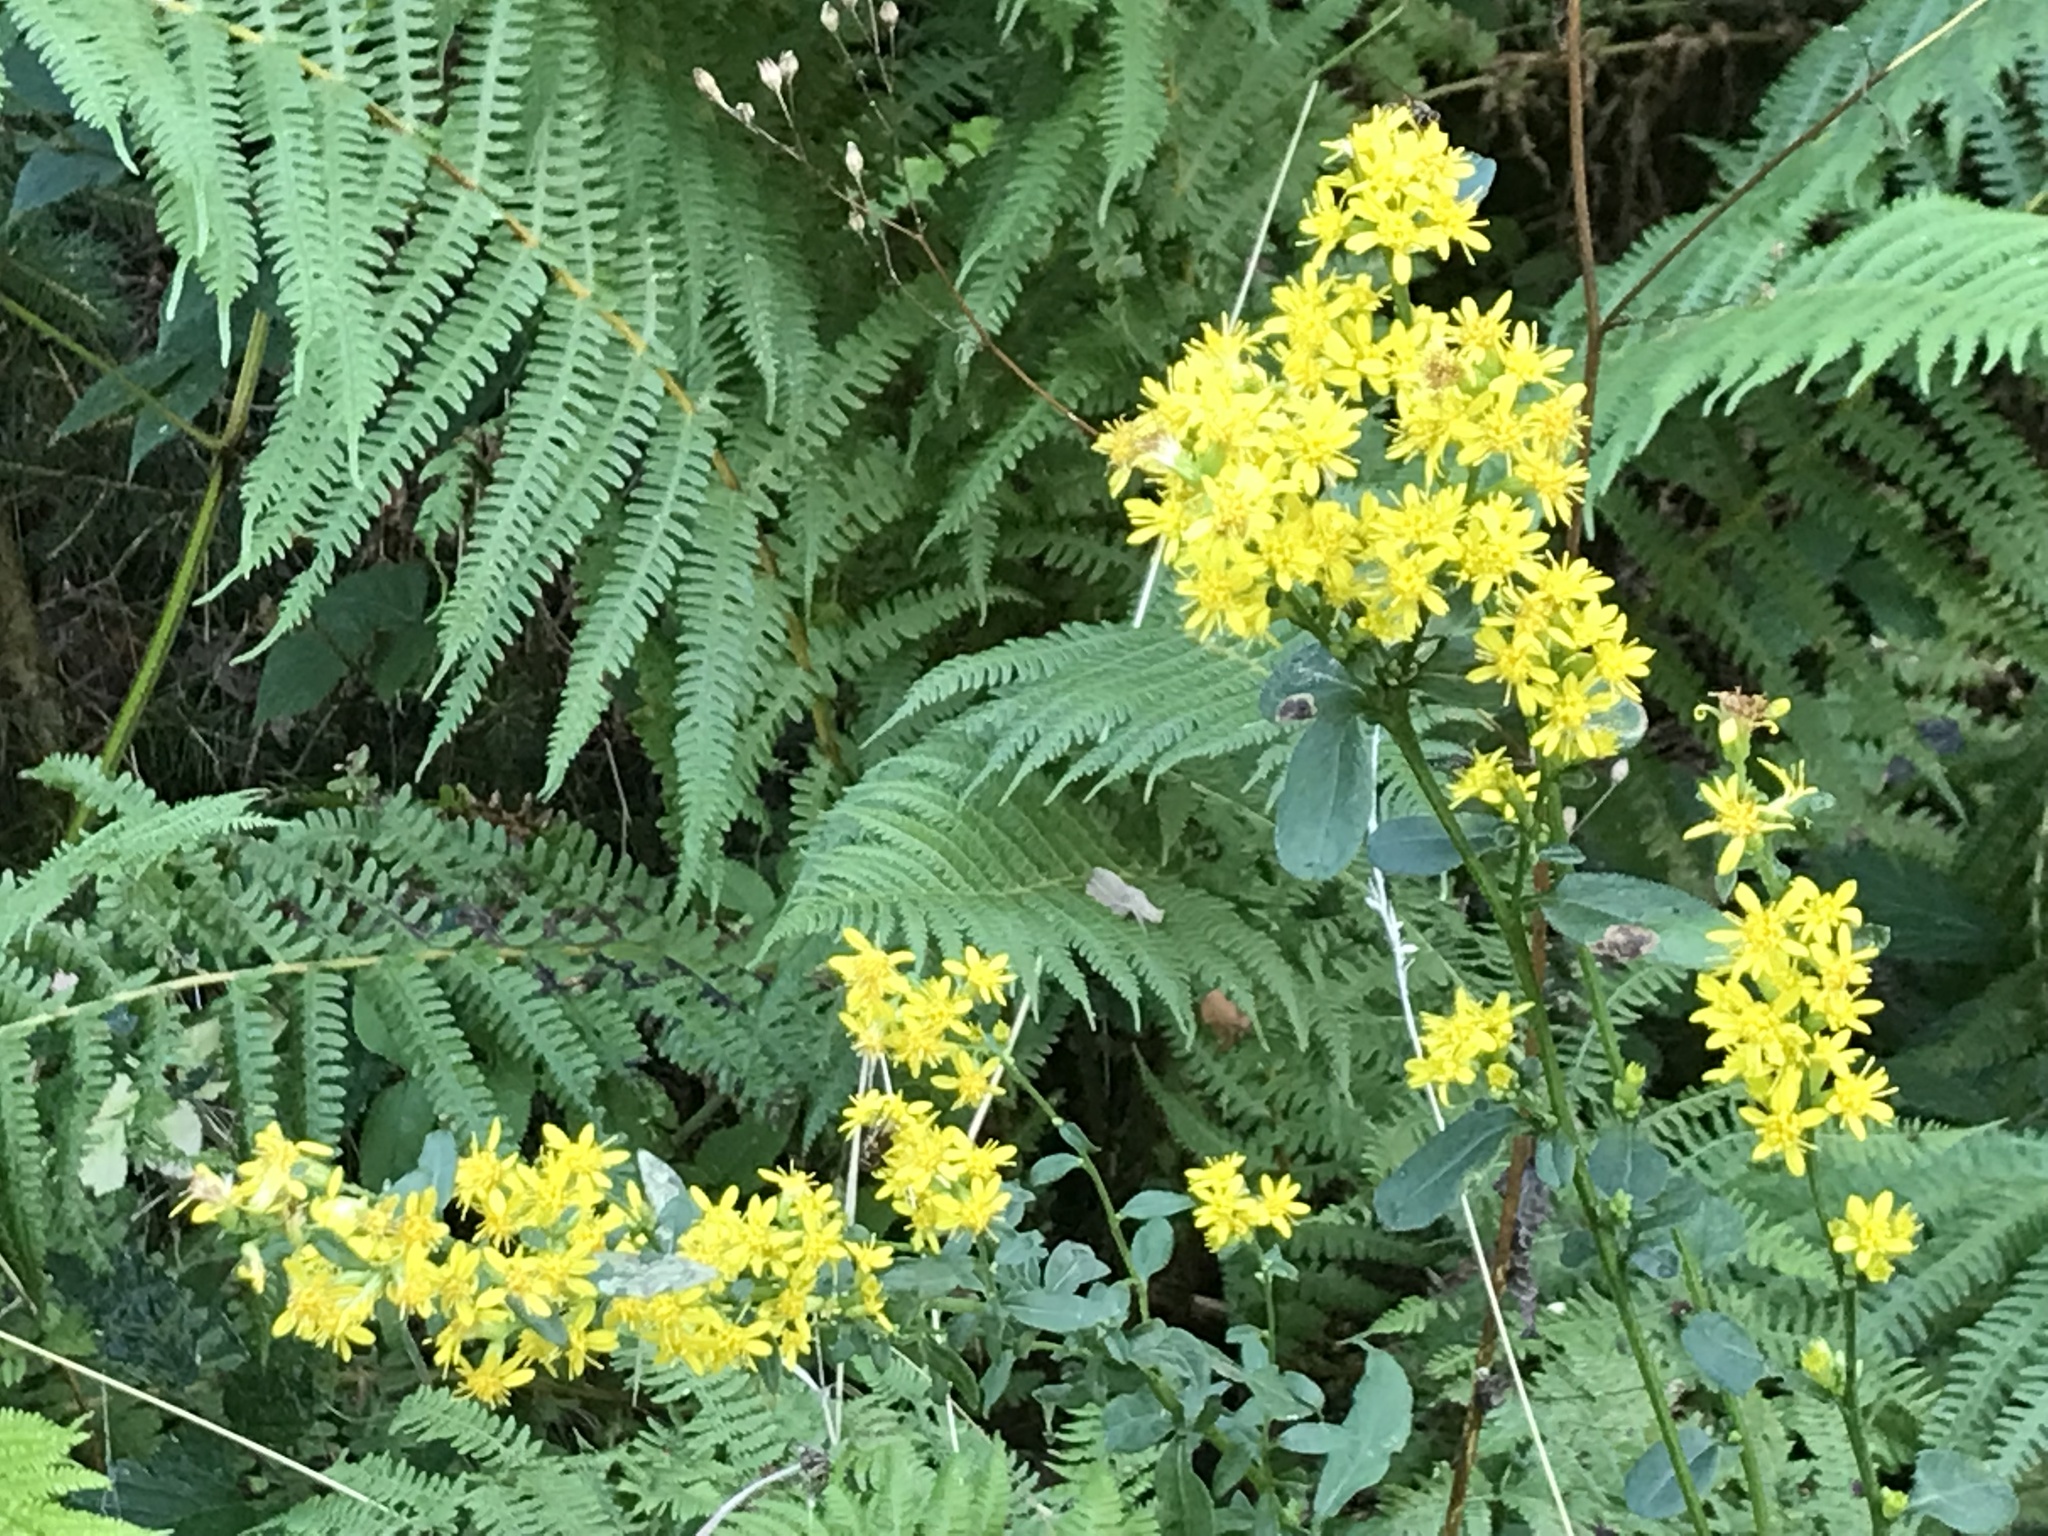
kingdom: Plantae
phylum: Tracheophyta
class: Magnoliopsida
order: Asterales
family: Asteraceae
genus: Solidago
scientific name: Solidago virgaurea
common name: Goldenrod
